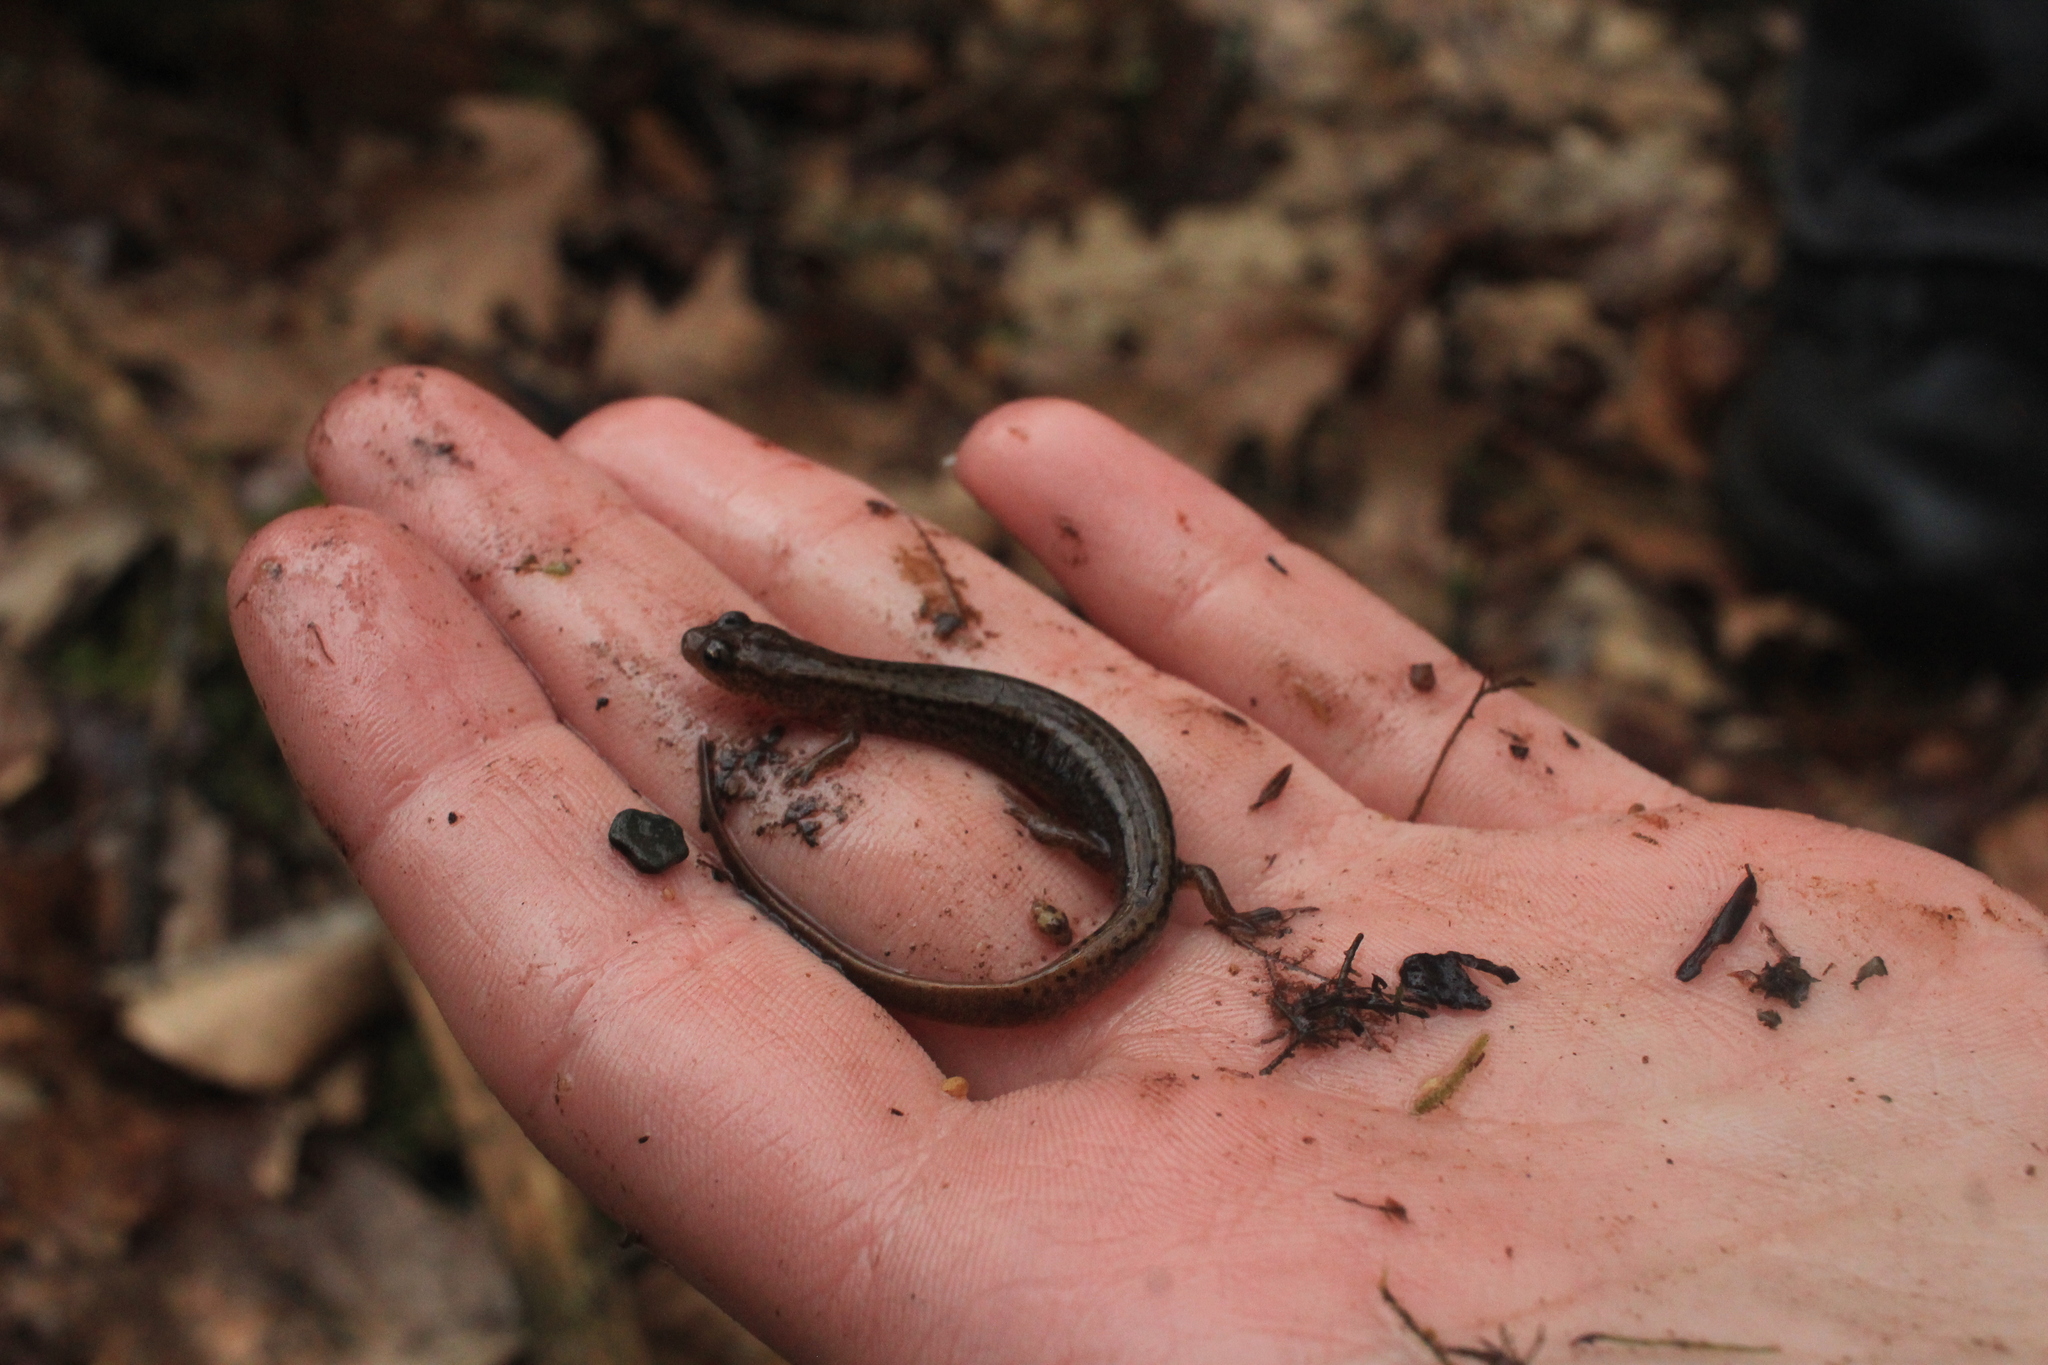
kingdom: Animalia
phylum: Chordata
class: Amphibia
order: Caudata
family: Plethodontidae
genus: Eurycea
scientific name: Eurycea bislineata
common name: Northern two-lined salamander
